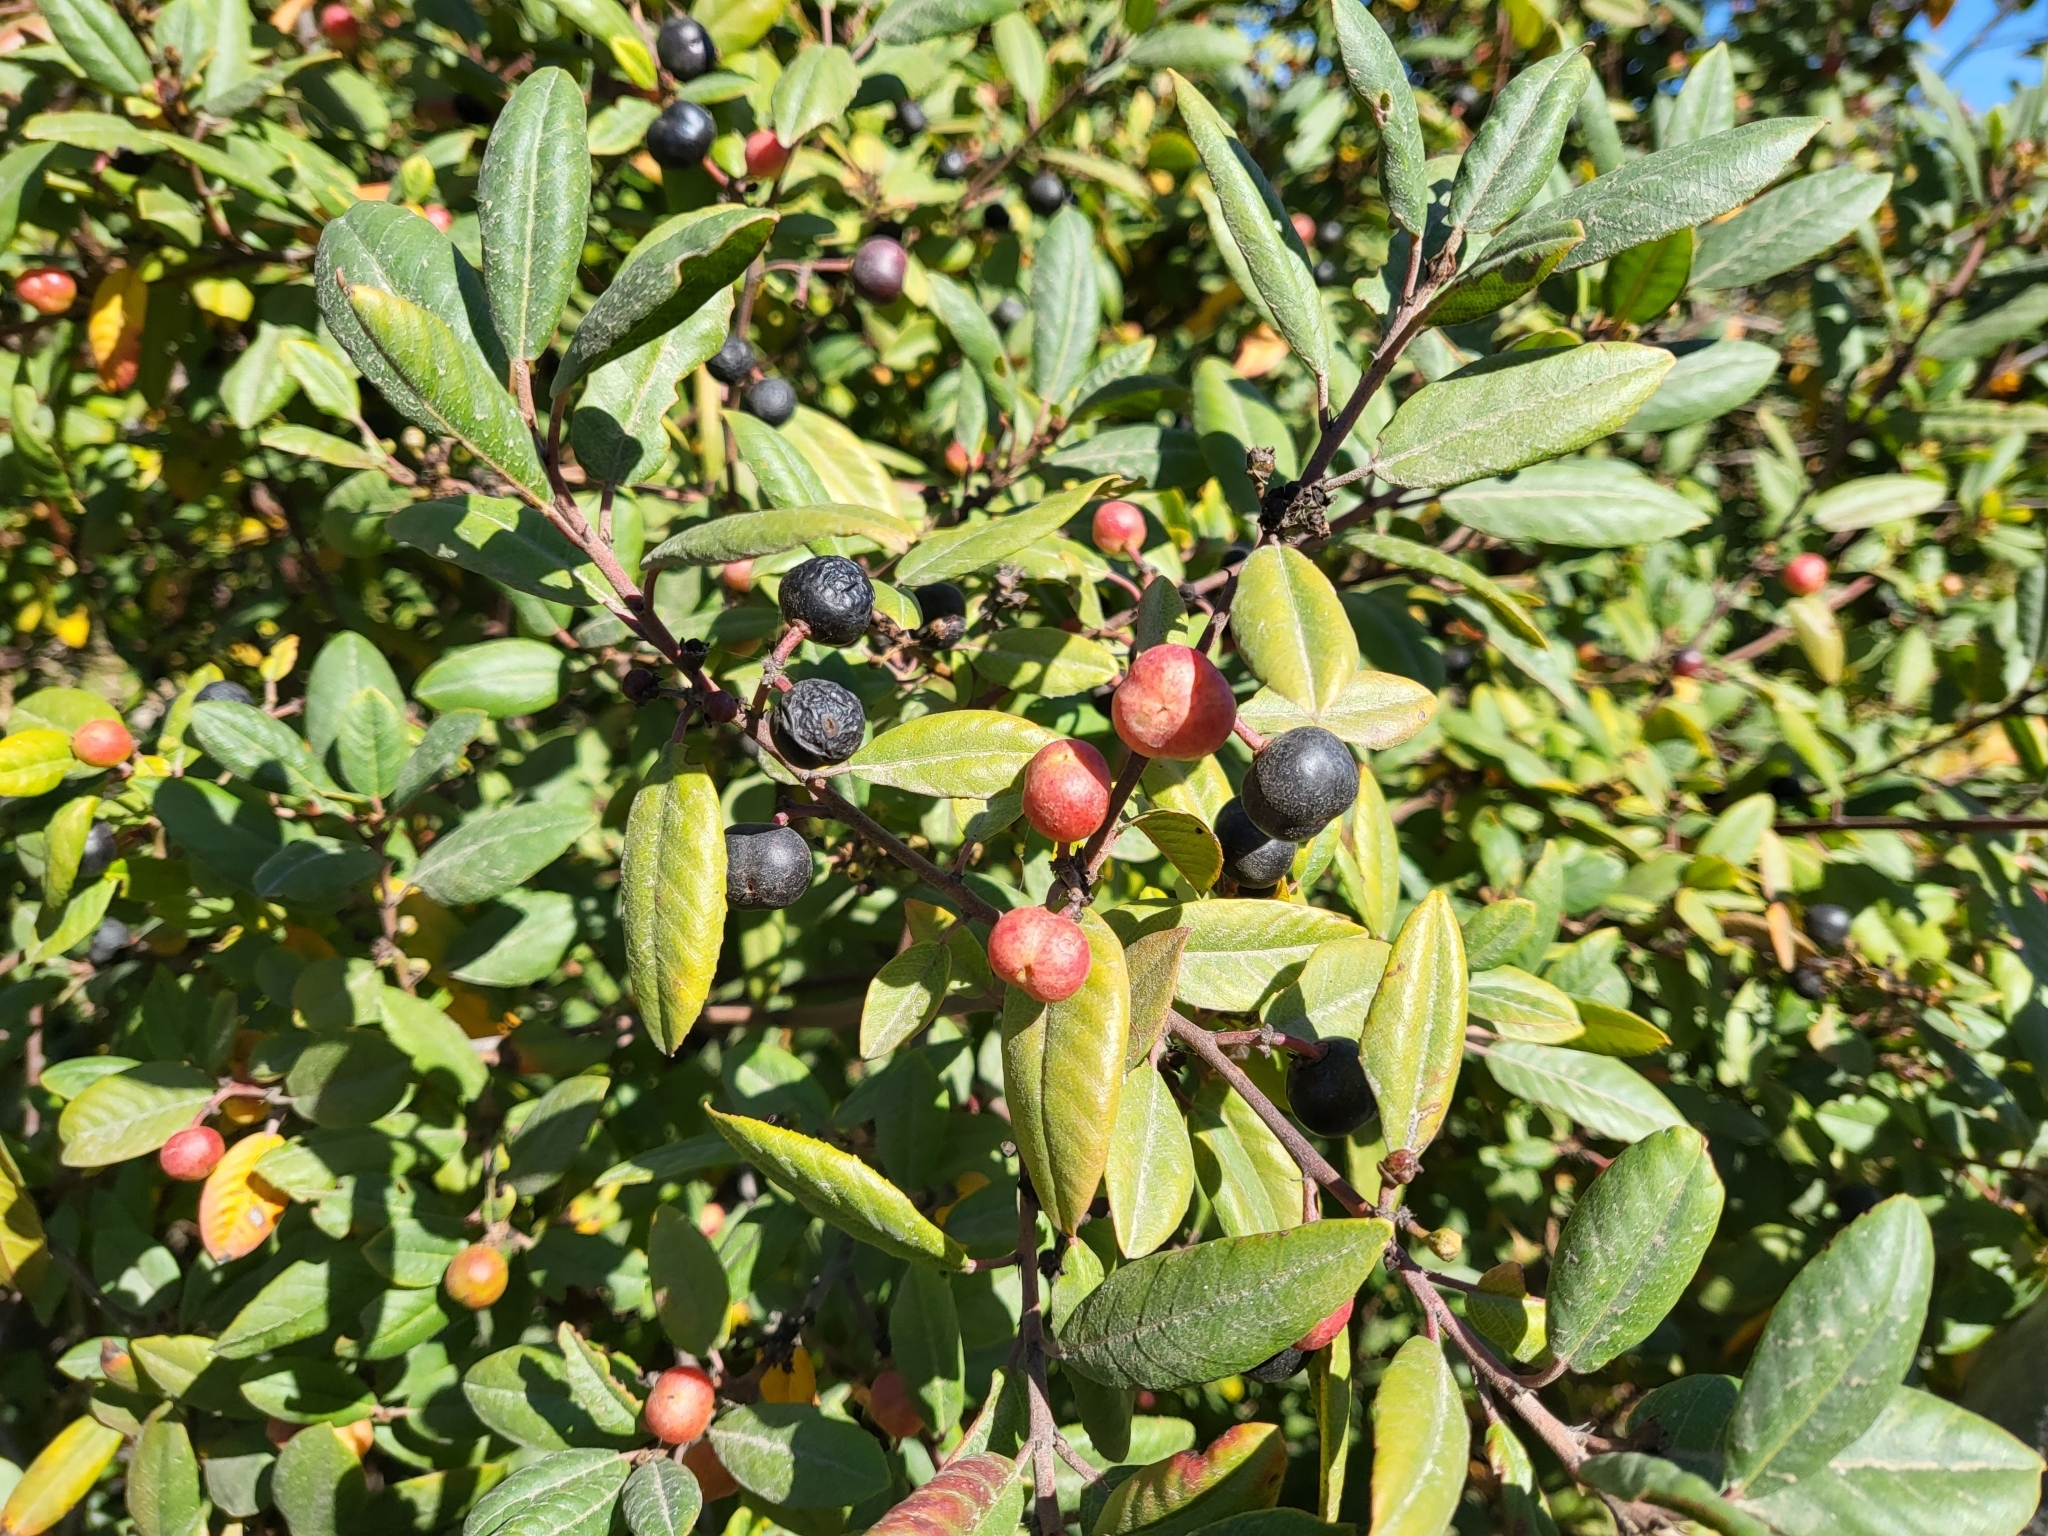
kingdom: Plantae
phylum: Tracheophyta
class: Magnoliopsida
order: Rosales
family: Rhamnaceae
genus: Frangula
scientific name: Frangula californica
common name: California buckthorn
